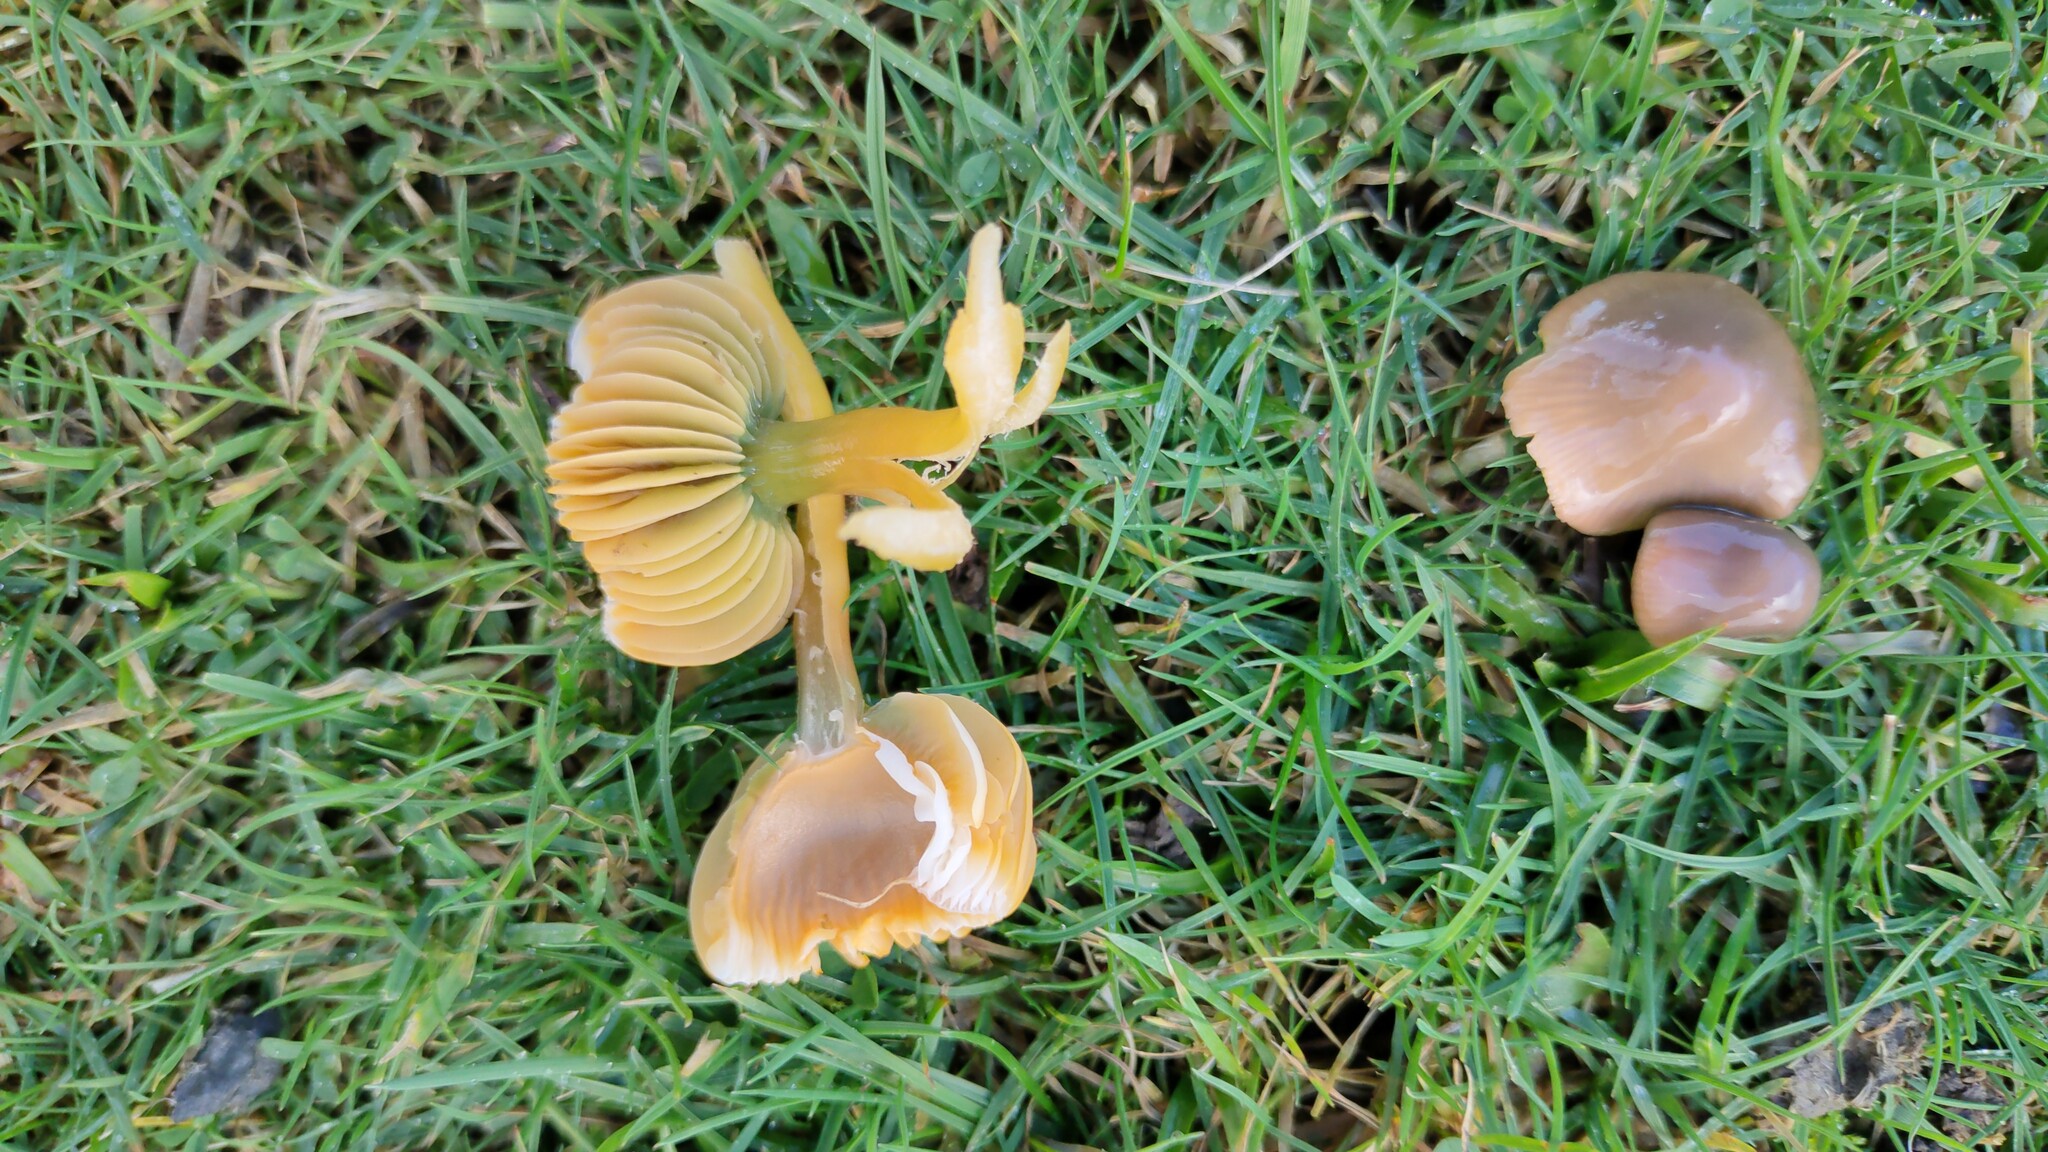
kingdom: Fungi
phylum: Basidiomycota
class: Agaricomycetes
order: Agaricales
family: Hygrophoraceae
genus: Gliophorus
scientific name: Gliophorus psittacinus
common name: Parrot wax-cap
